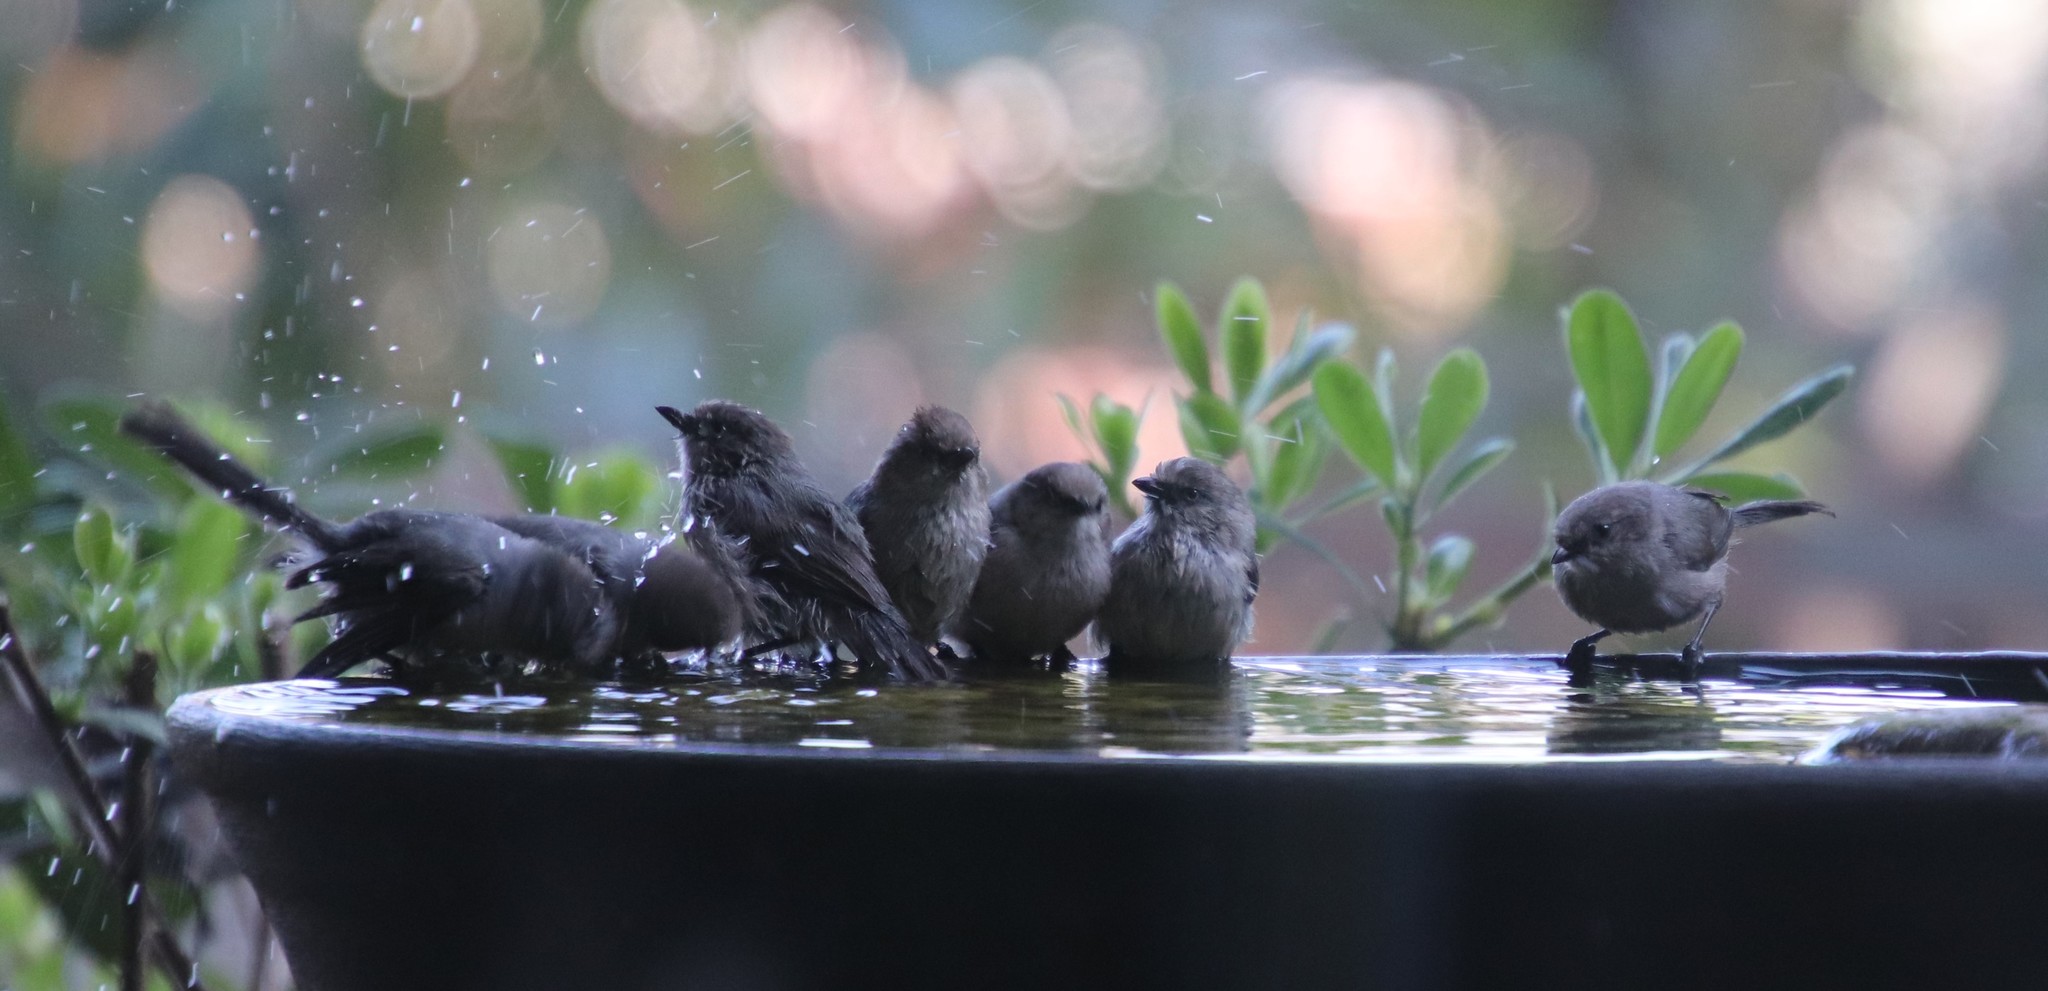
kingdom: Animalia
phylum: Chordata
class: Aves
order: Passeriformes
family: Aegithalidae
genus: Psaltriparus
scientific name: Psaltriparus minimus
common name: American bushtit
